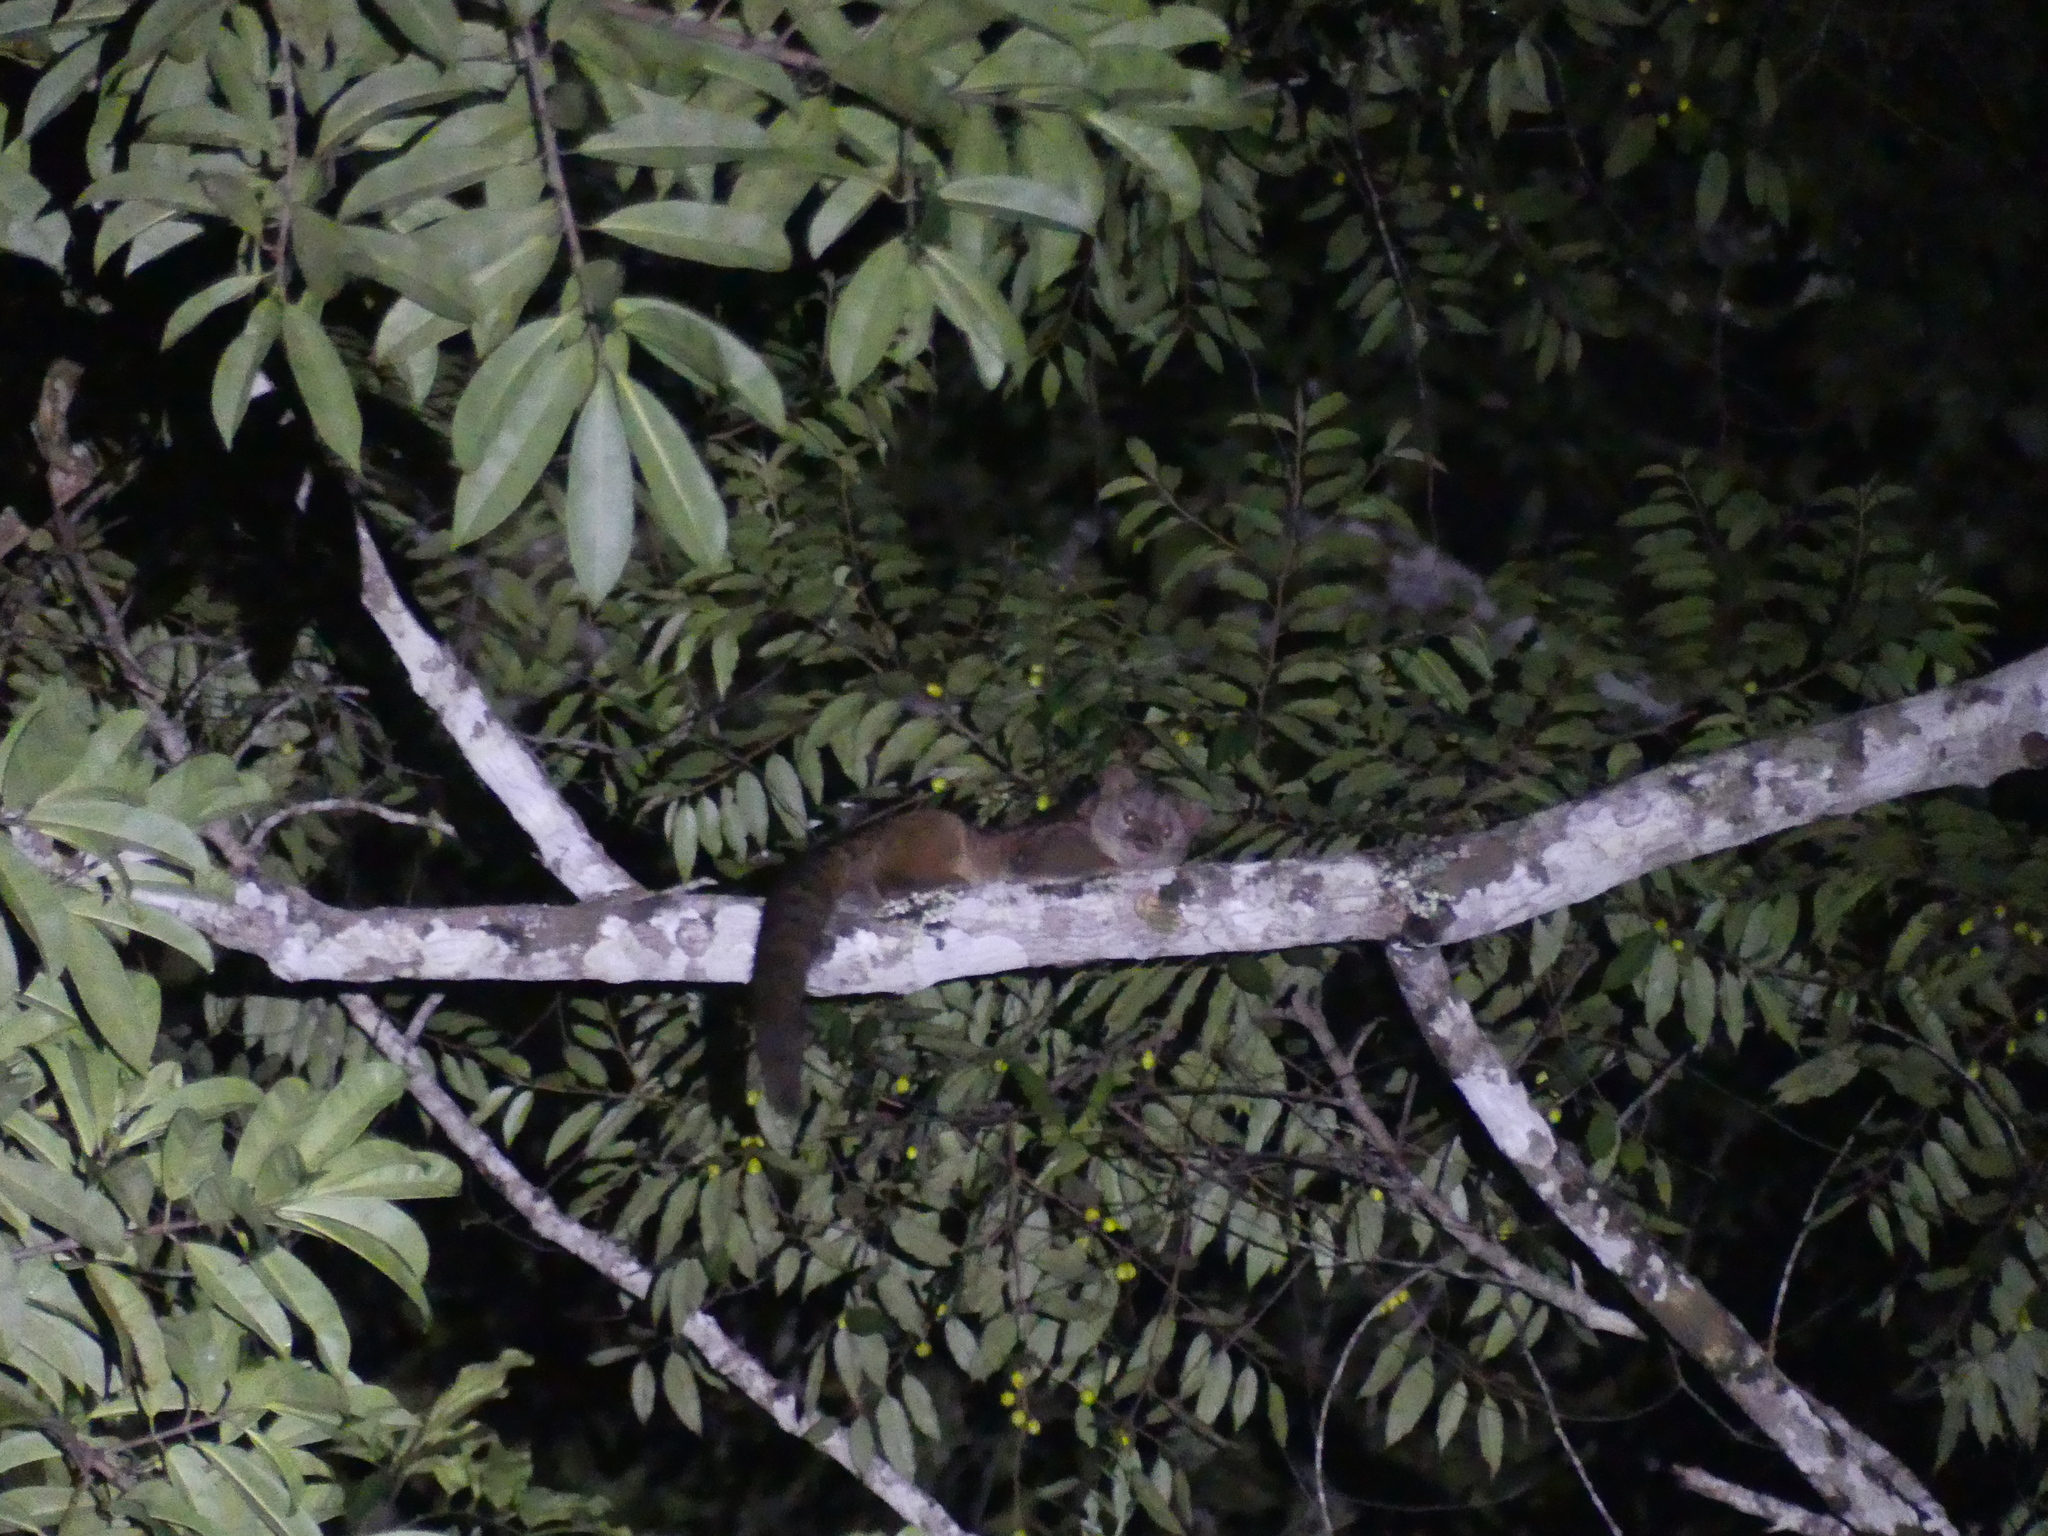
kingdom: Animalia
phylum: Chordata
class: Mammalia
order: Carnivora
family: Nandiniidae
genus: Nandinia
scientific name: Nandinia binotata
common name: African palm civet
